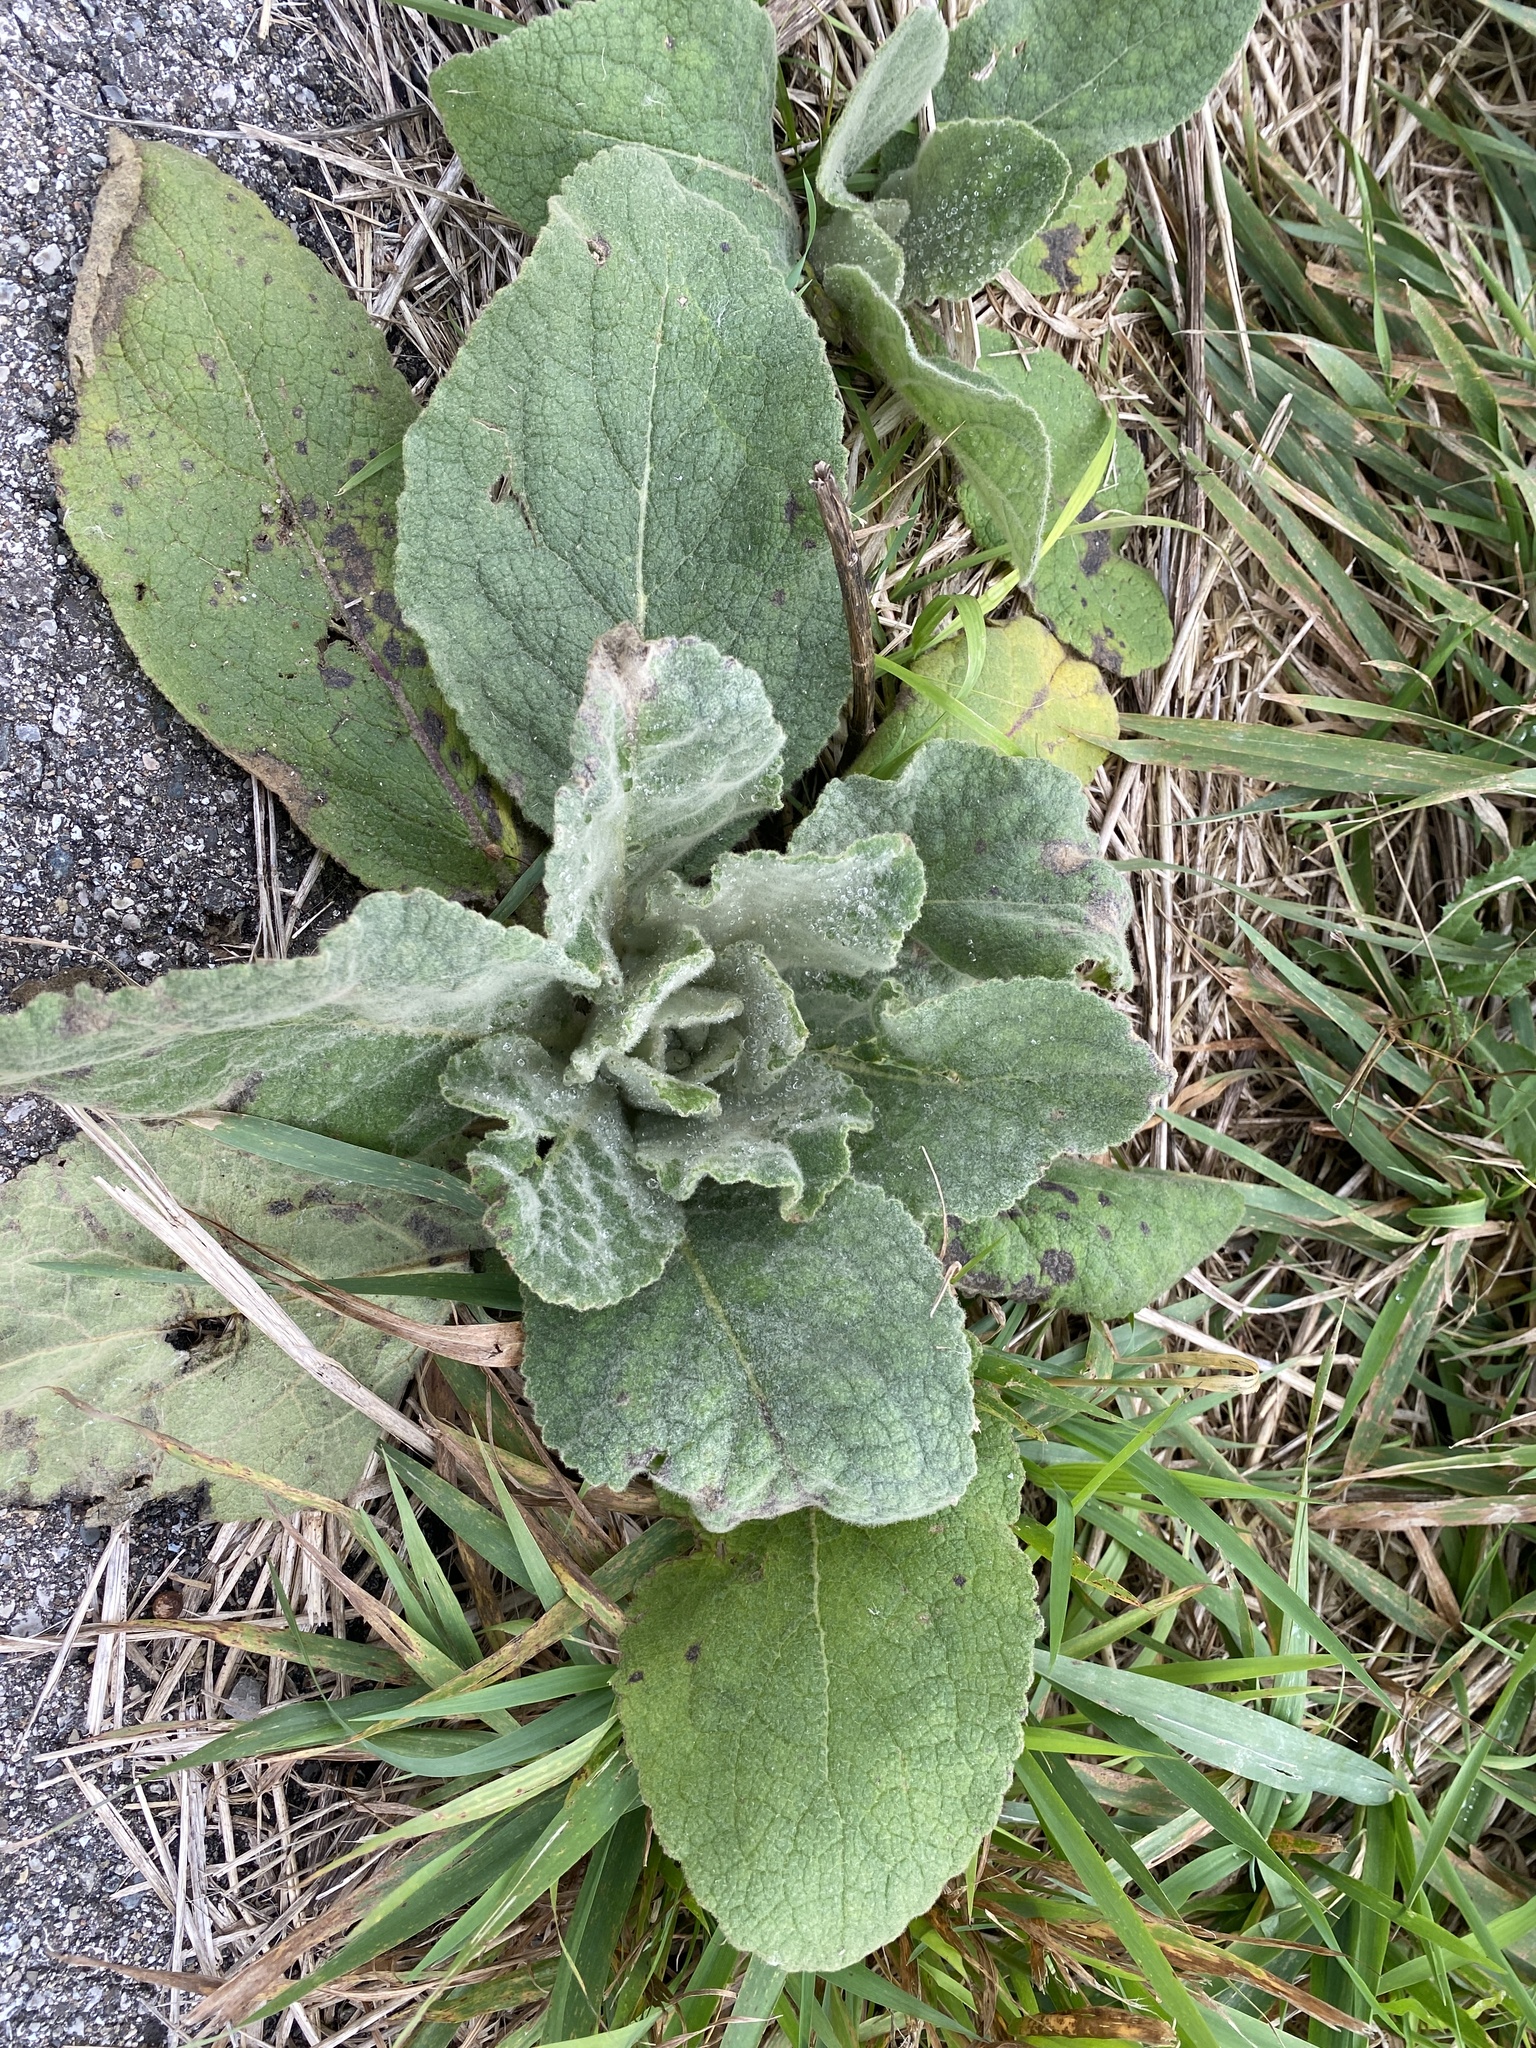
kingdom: Plantae
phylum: Tracheophyta
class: Magnoliopsida
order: Lamiales
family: Scrophulariaceae
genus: Verbascum
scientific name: Verbascum thapsus
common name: Common mullein
